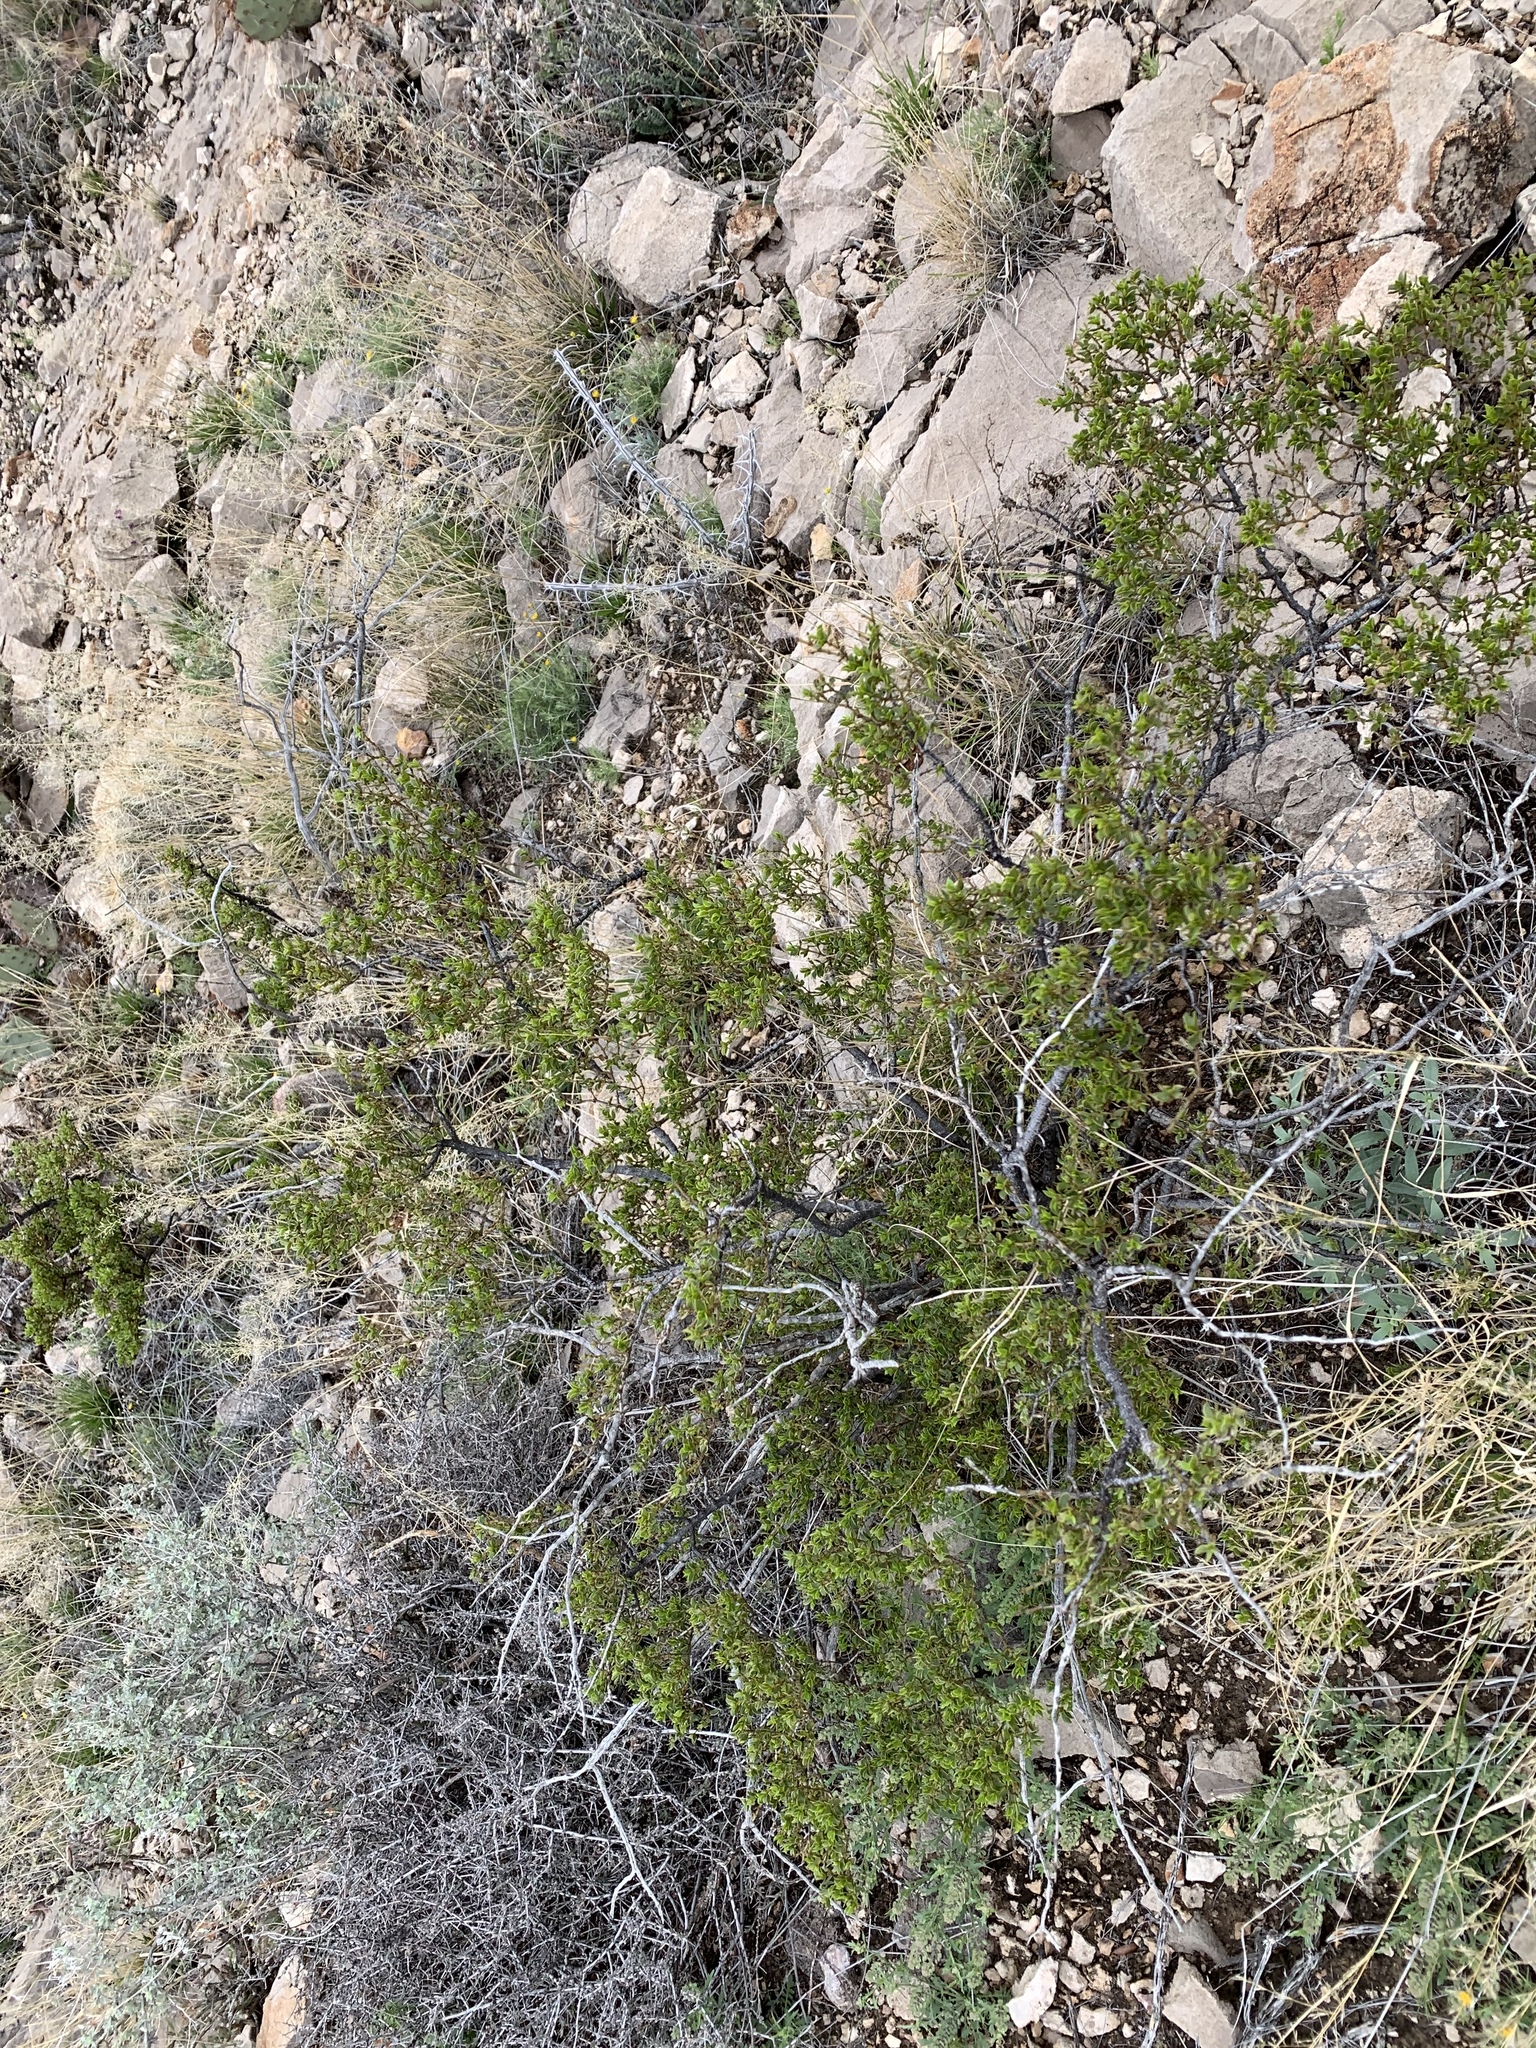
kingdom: Plantae
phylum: Tracheophyta
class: Magnoliopsida
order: Zygophyllales
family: Zygophyllaceae
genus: Larrea
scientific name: Larrea tridentata
